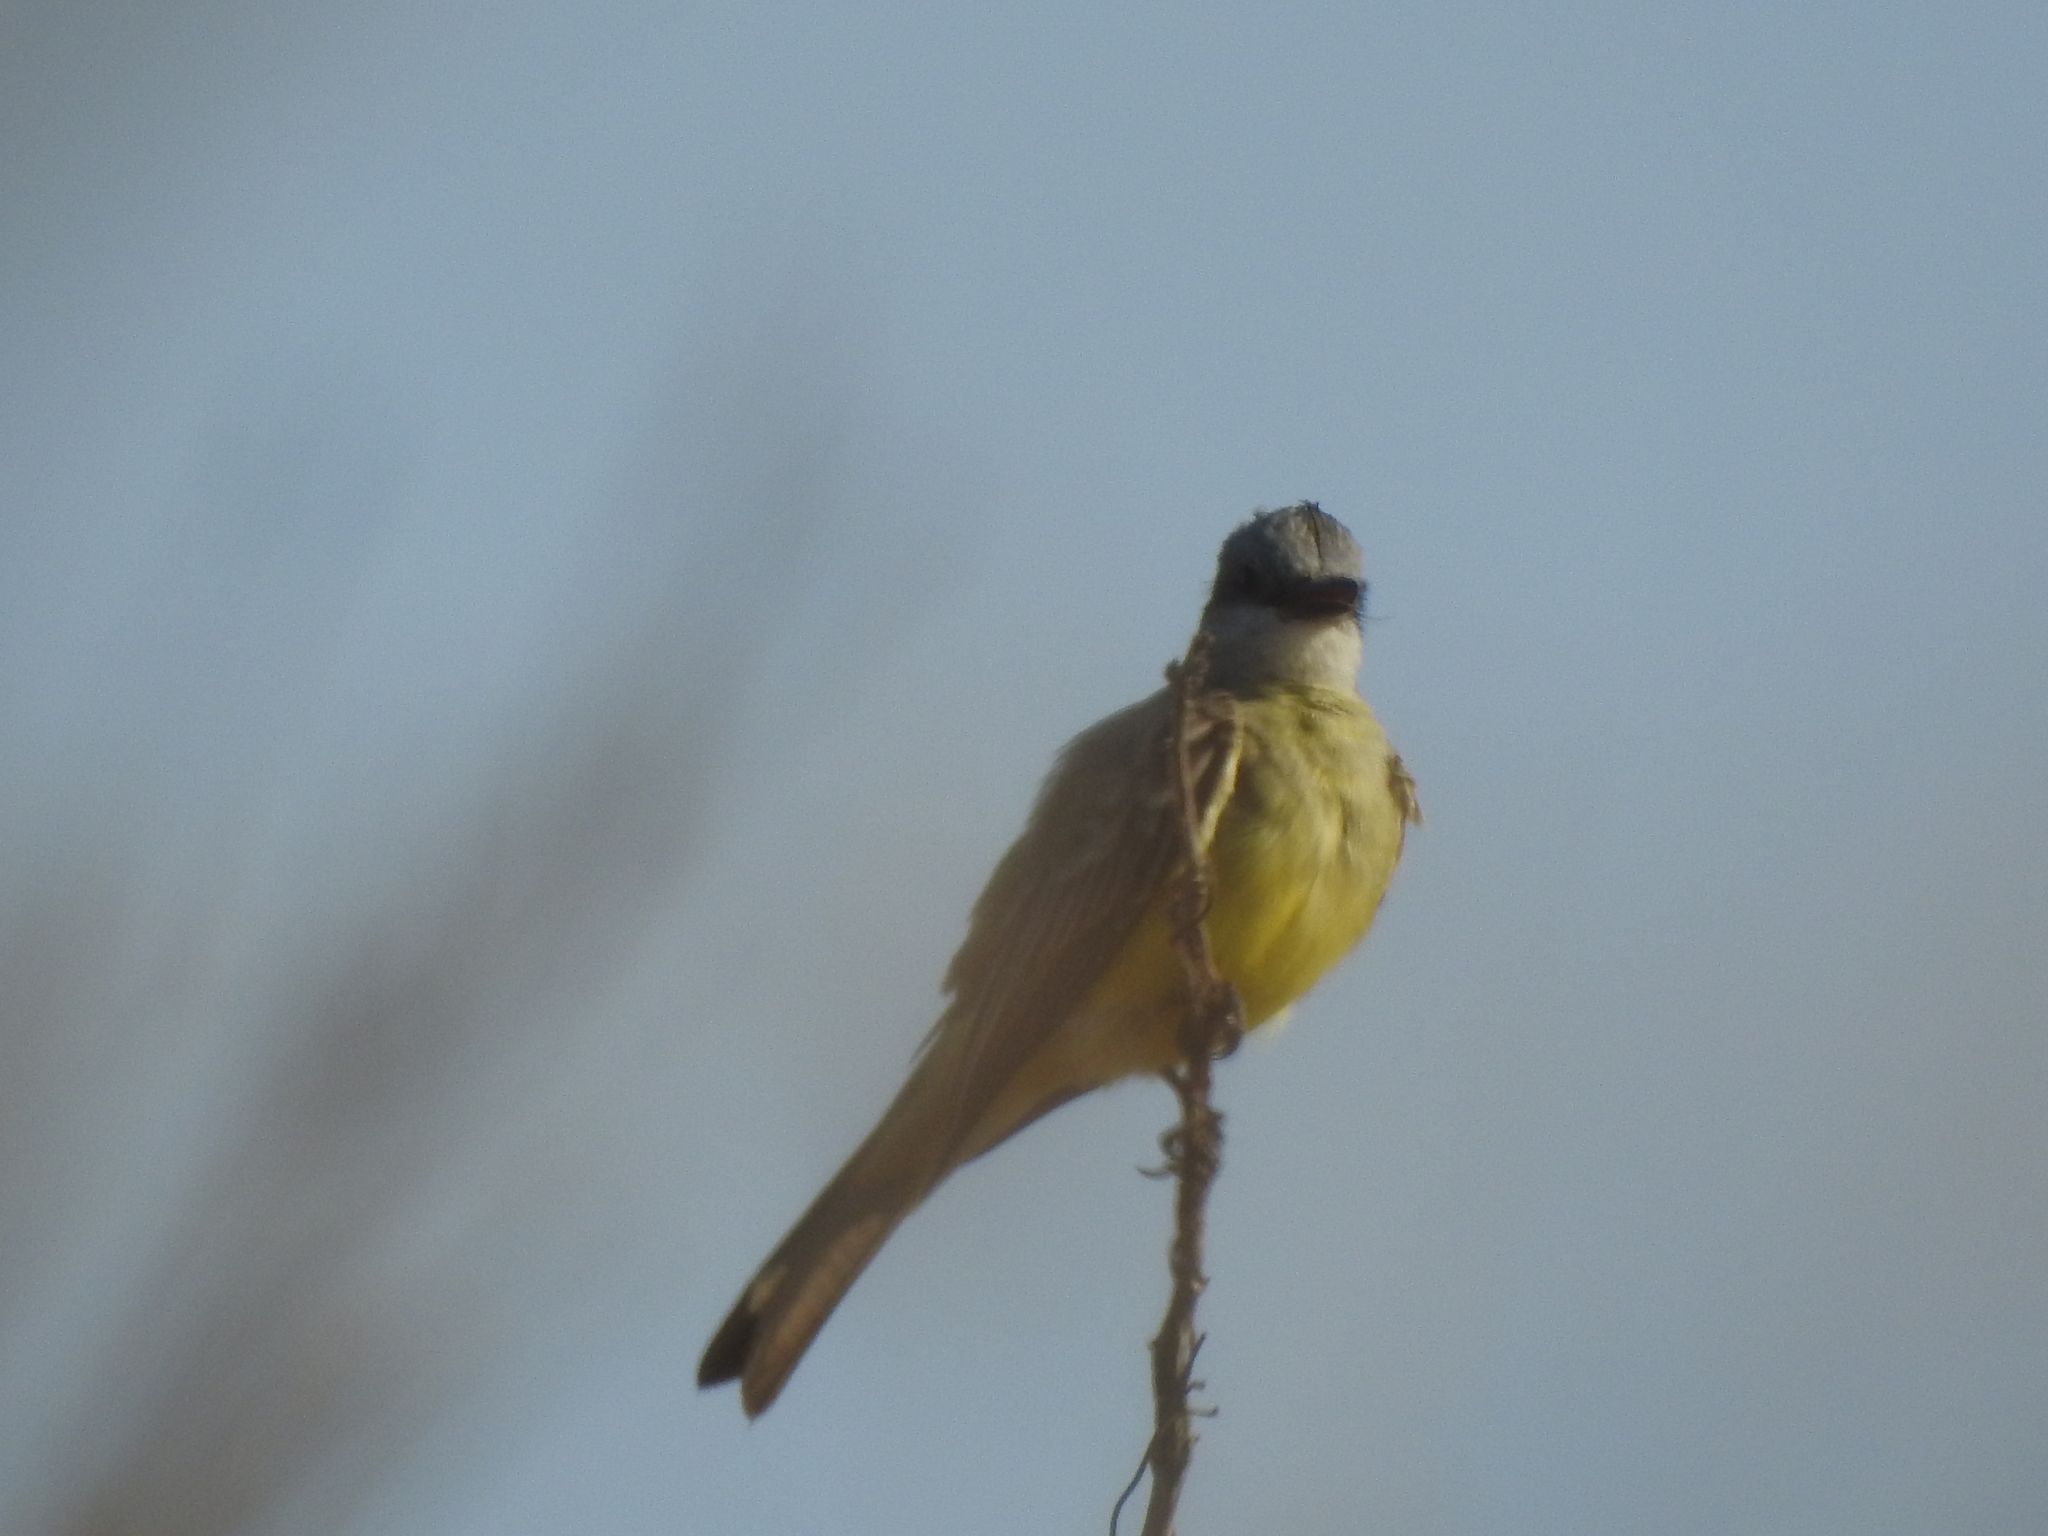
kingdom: Animalia
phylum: Chordata
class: Aves
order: Passeriformes
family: Tyrannidae
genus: Tyrannus
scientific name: Tyrannus melancholicus
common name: Tropical kingbird
